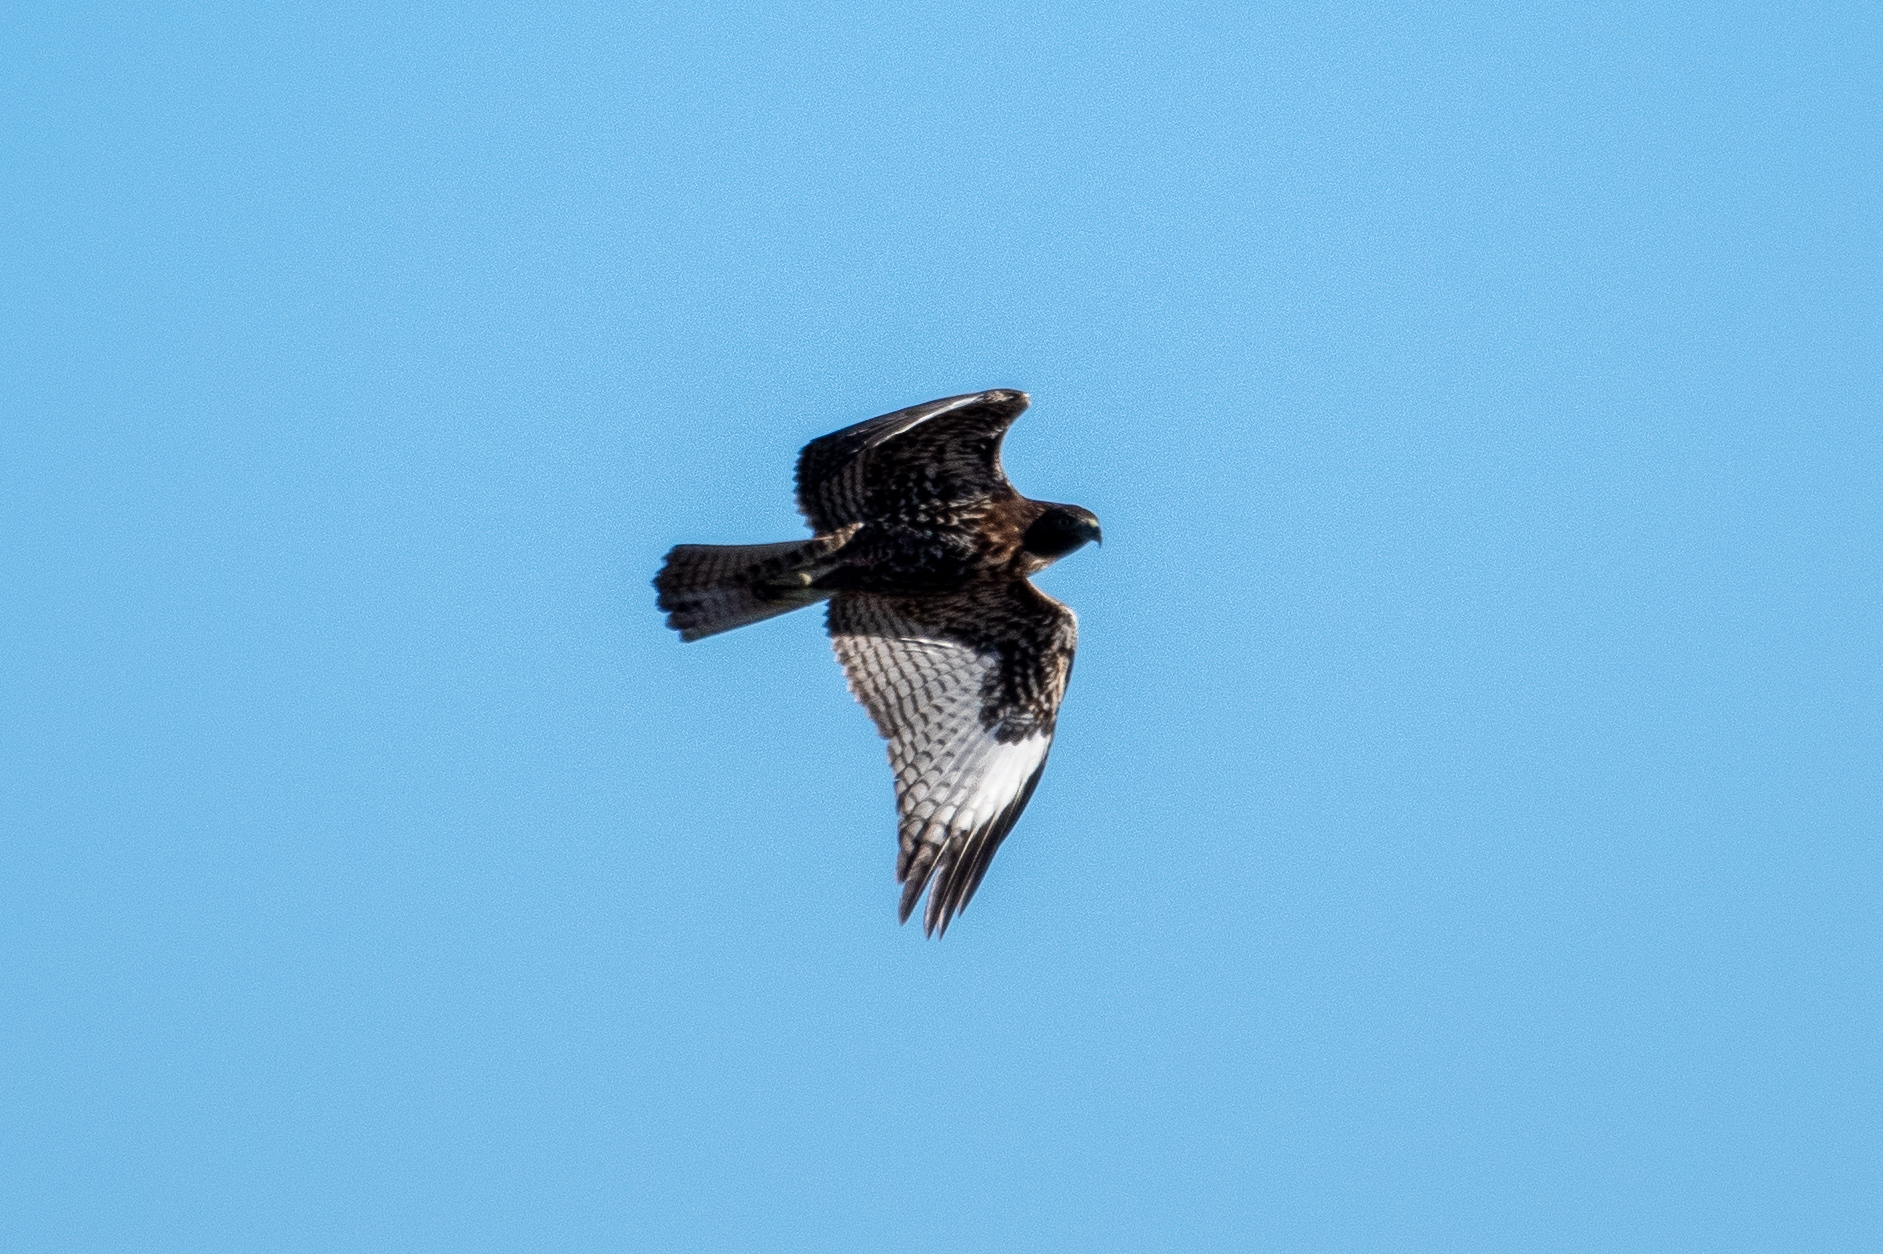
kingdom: Animalia
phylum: Chordata
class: Aves
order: Accipitriformes
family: Accipitridae
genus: Buteo
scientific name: Buteo jamaicensis
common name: Red-tailed hawk
